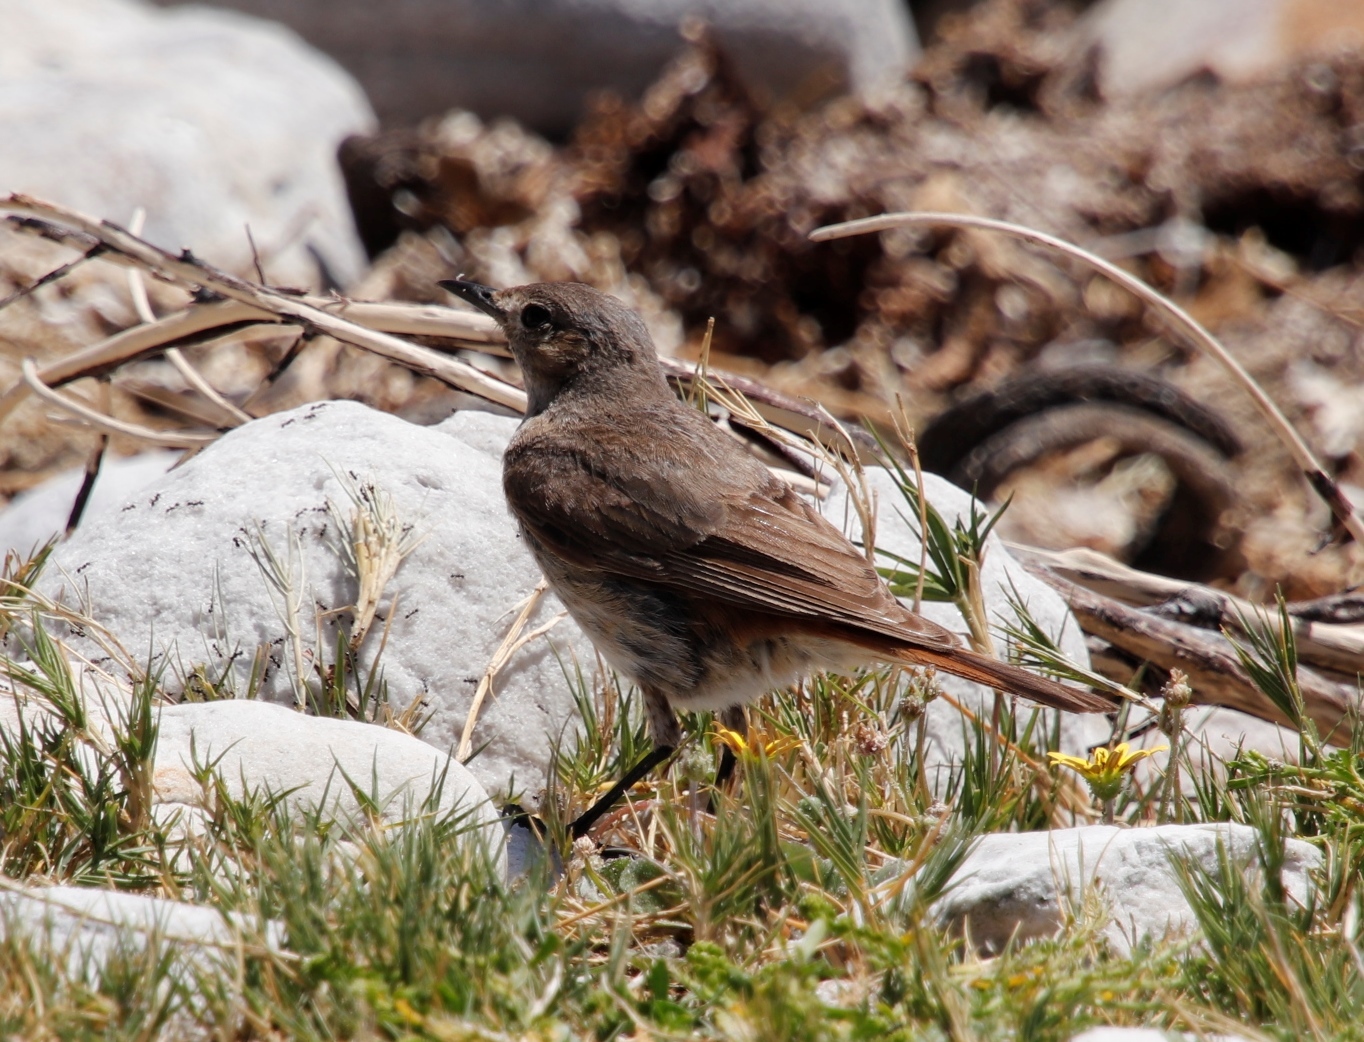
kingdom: Animalia
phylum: Chordata
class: Aves
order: Passeriformes
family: Muscicapidae
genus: Oenanthe
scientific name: Oenanthe familiaris
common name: Familiar chat
